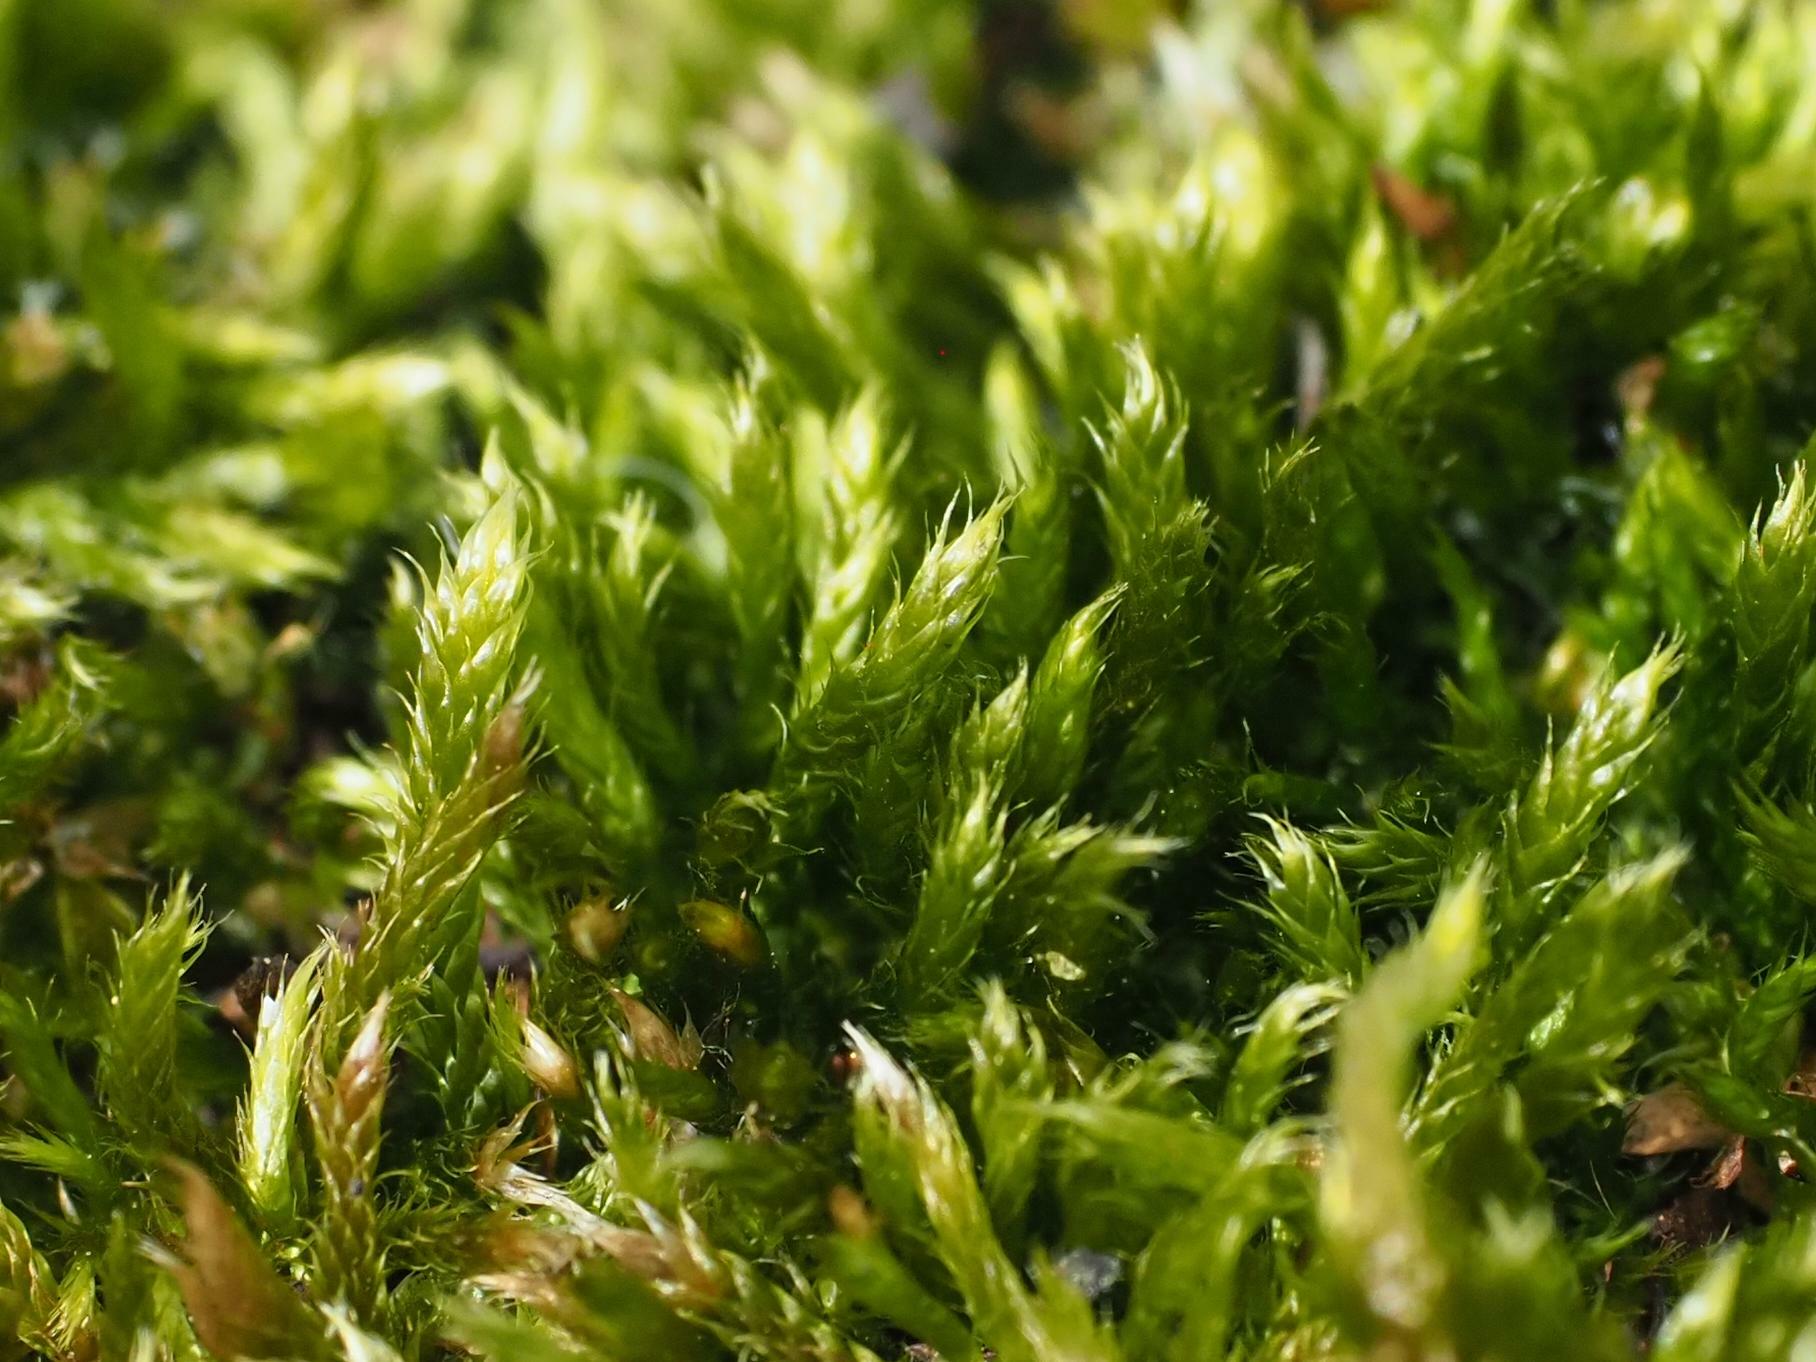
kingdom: Plantae
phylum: Bryophyta
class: Bryopsida
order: Hypnales
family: Hypnaceae
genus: Hypnum
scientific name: Hypnum cupressiforme
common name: Cypress-leaved plait-moss
